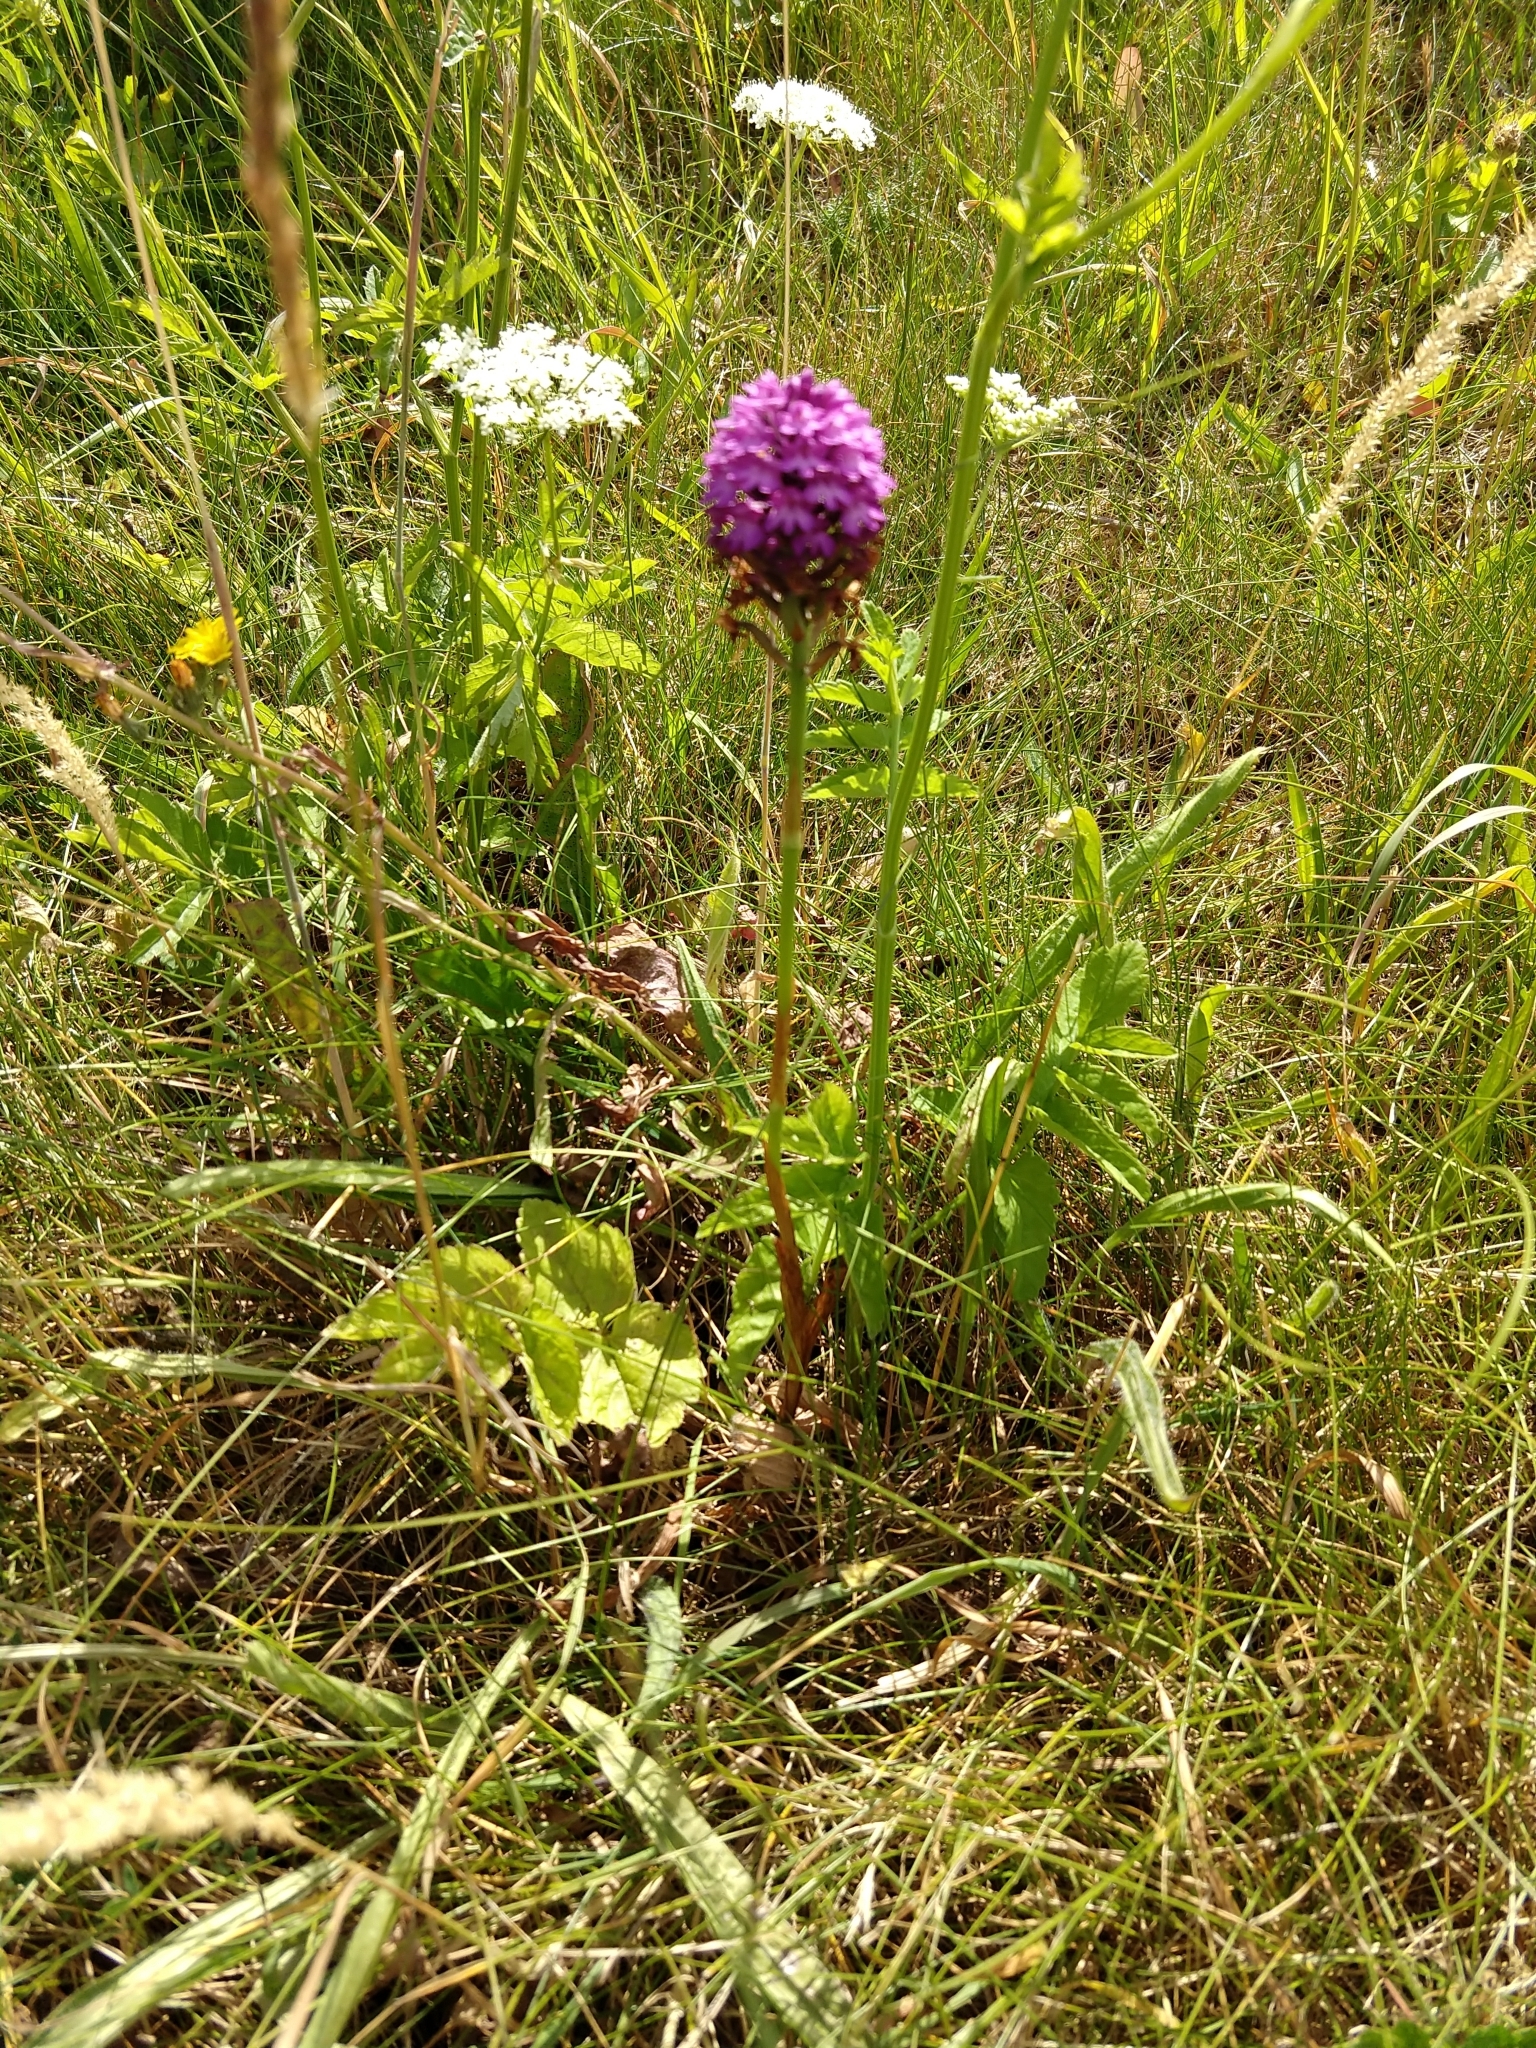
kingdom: Plantae
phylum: Tracheophyta
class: Liliopsida
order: Asparagales
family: Orchidaceae
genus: Anacamptis
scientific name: Anacamptis pyramidalis
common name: Pyramidal orchid
